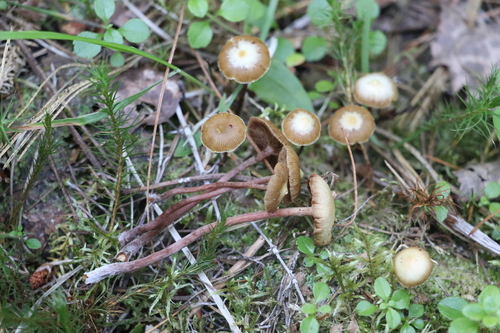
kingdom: Fungi
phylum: Basidiomycota
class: Agaricomycetes
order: Agaricales
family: Strophariaceae
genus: Pholiota
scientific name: Pholiota lignicola
